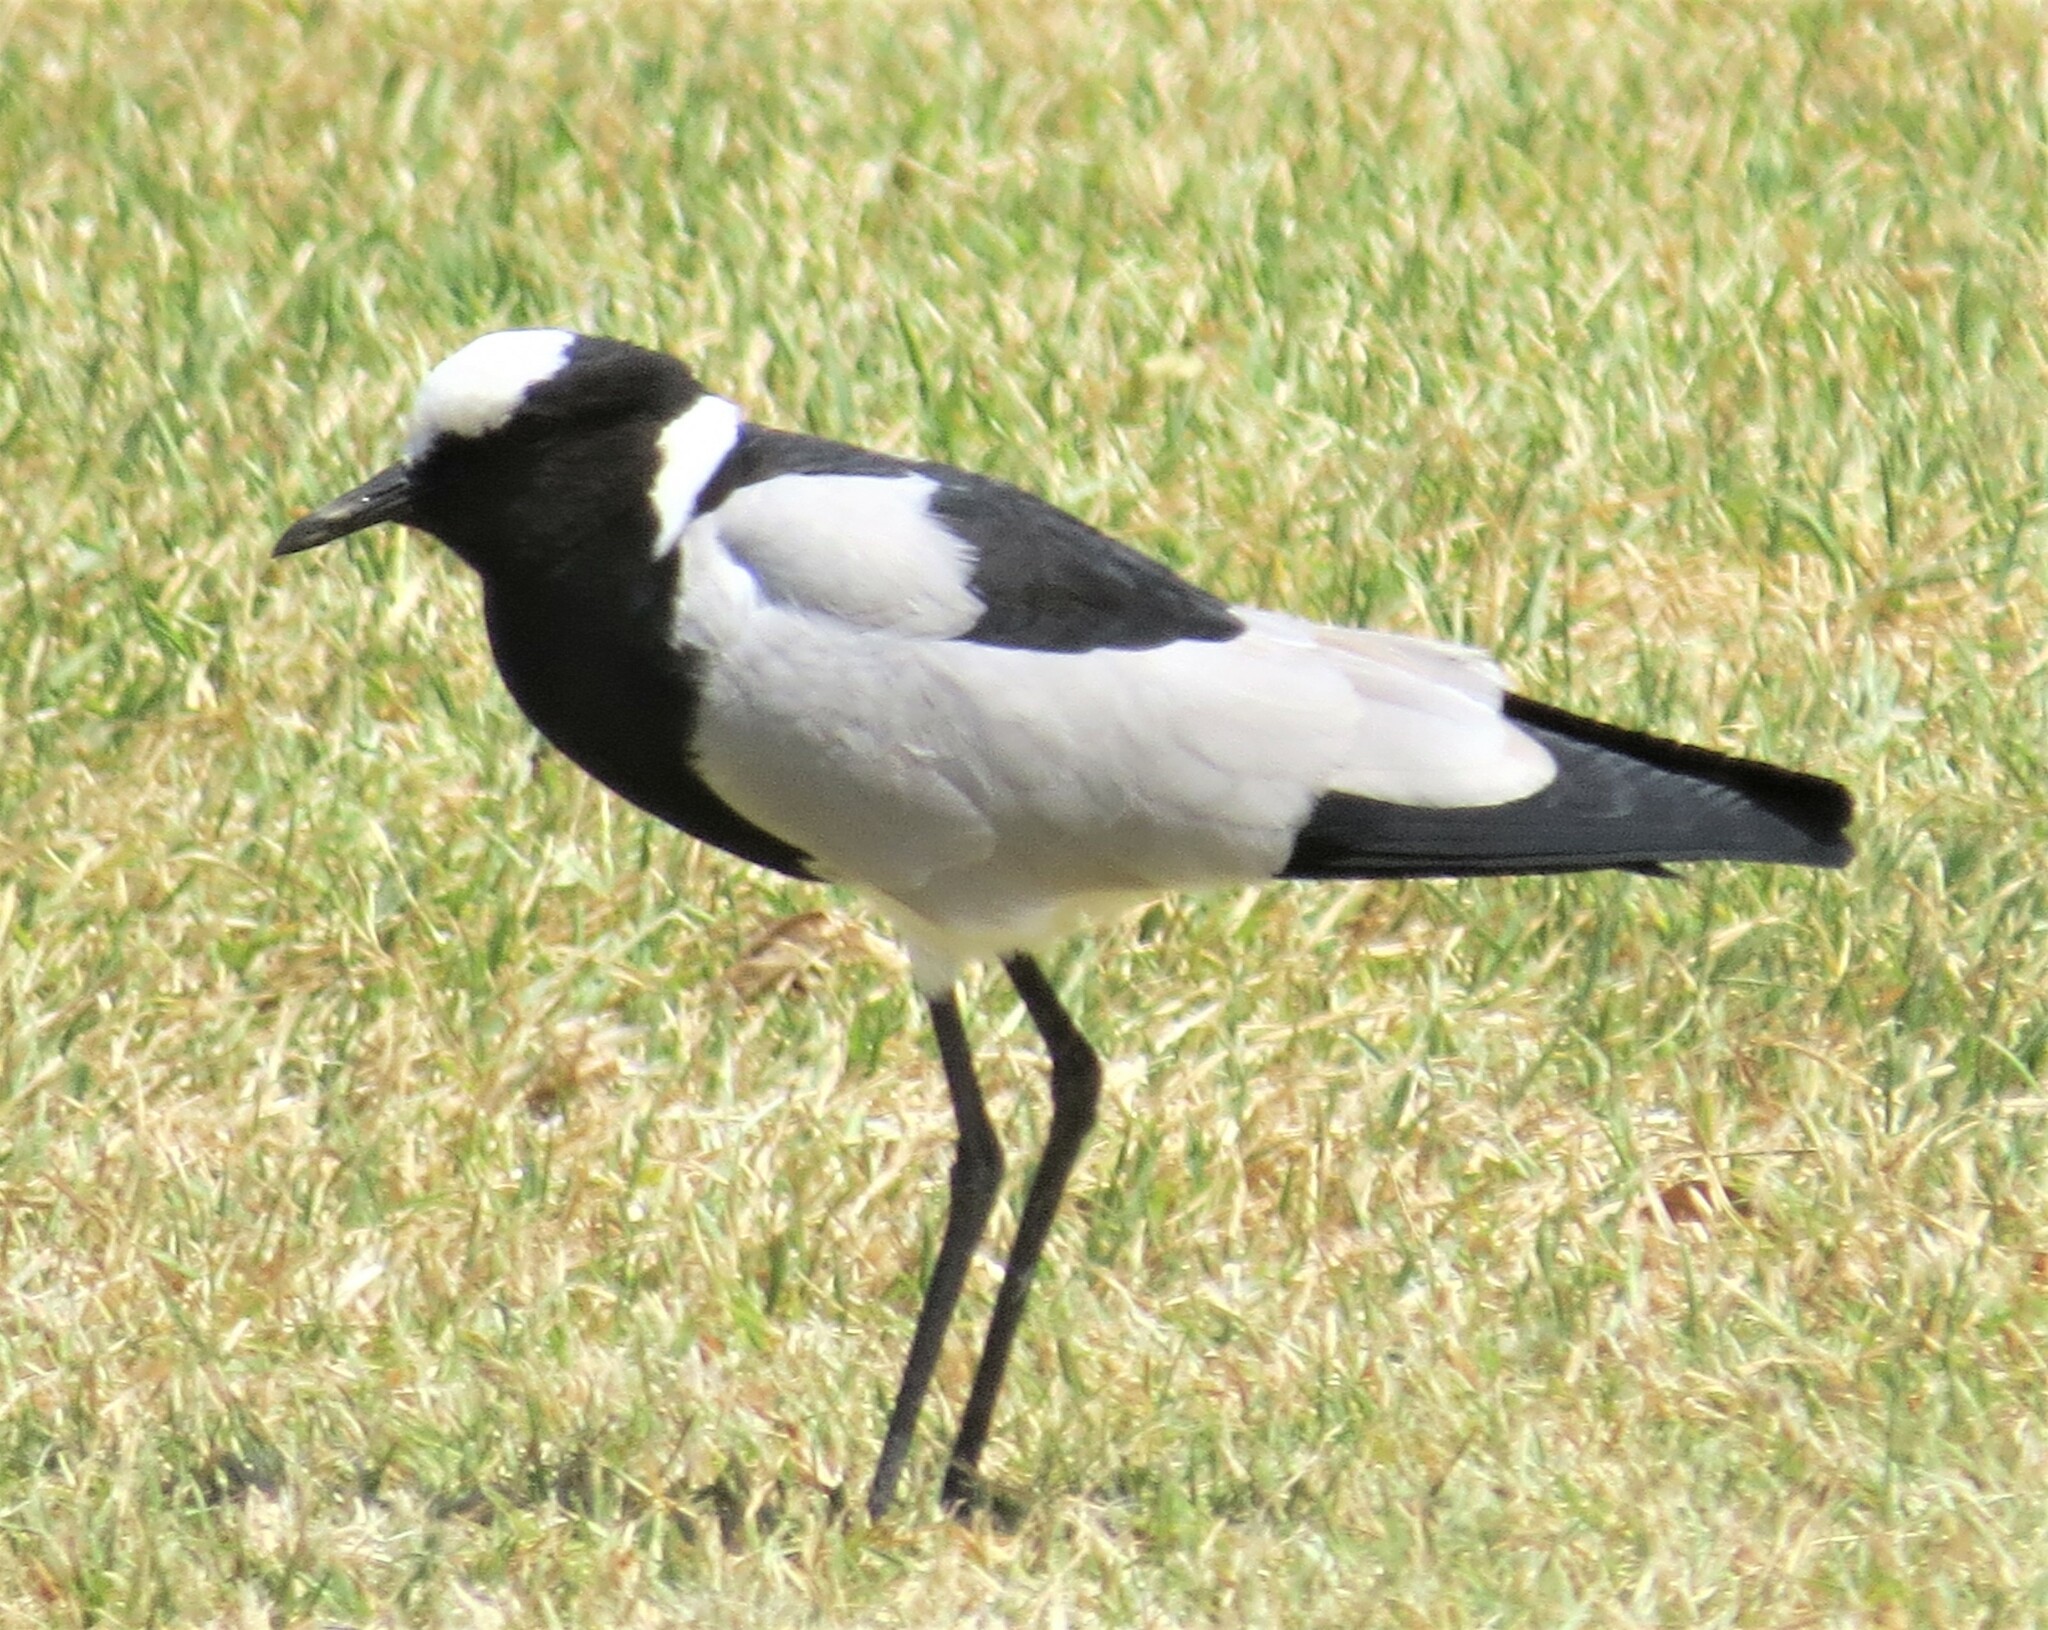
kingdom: Animalia
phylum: Chordata
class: Aves
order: Charadriiformes
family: Charadriidae
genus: Vanellus
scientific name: Vanellus armatus
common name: Blacksmith lapwing
